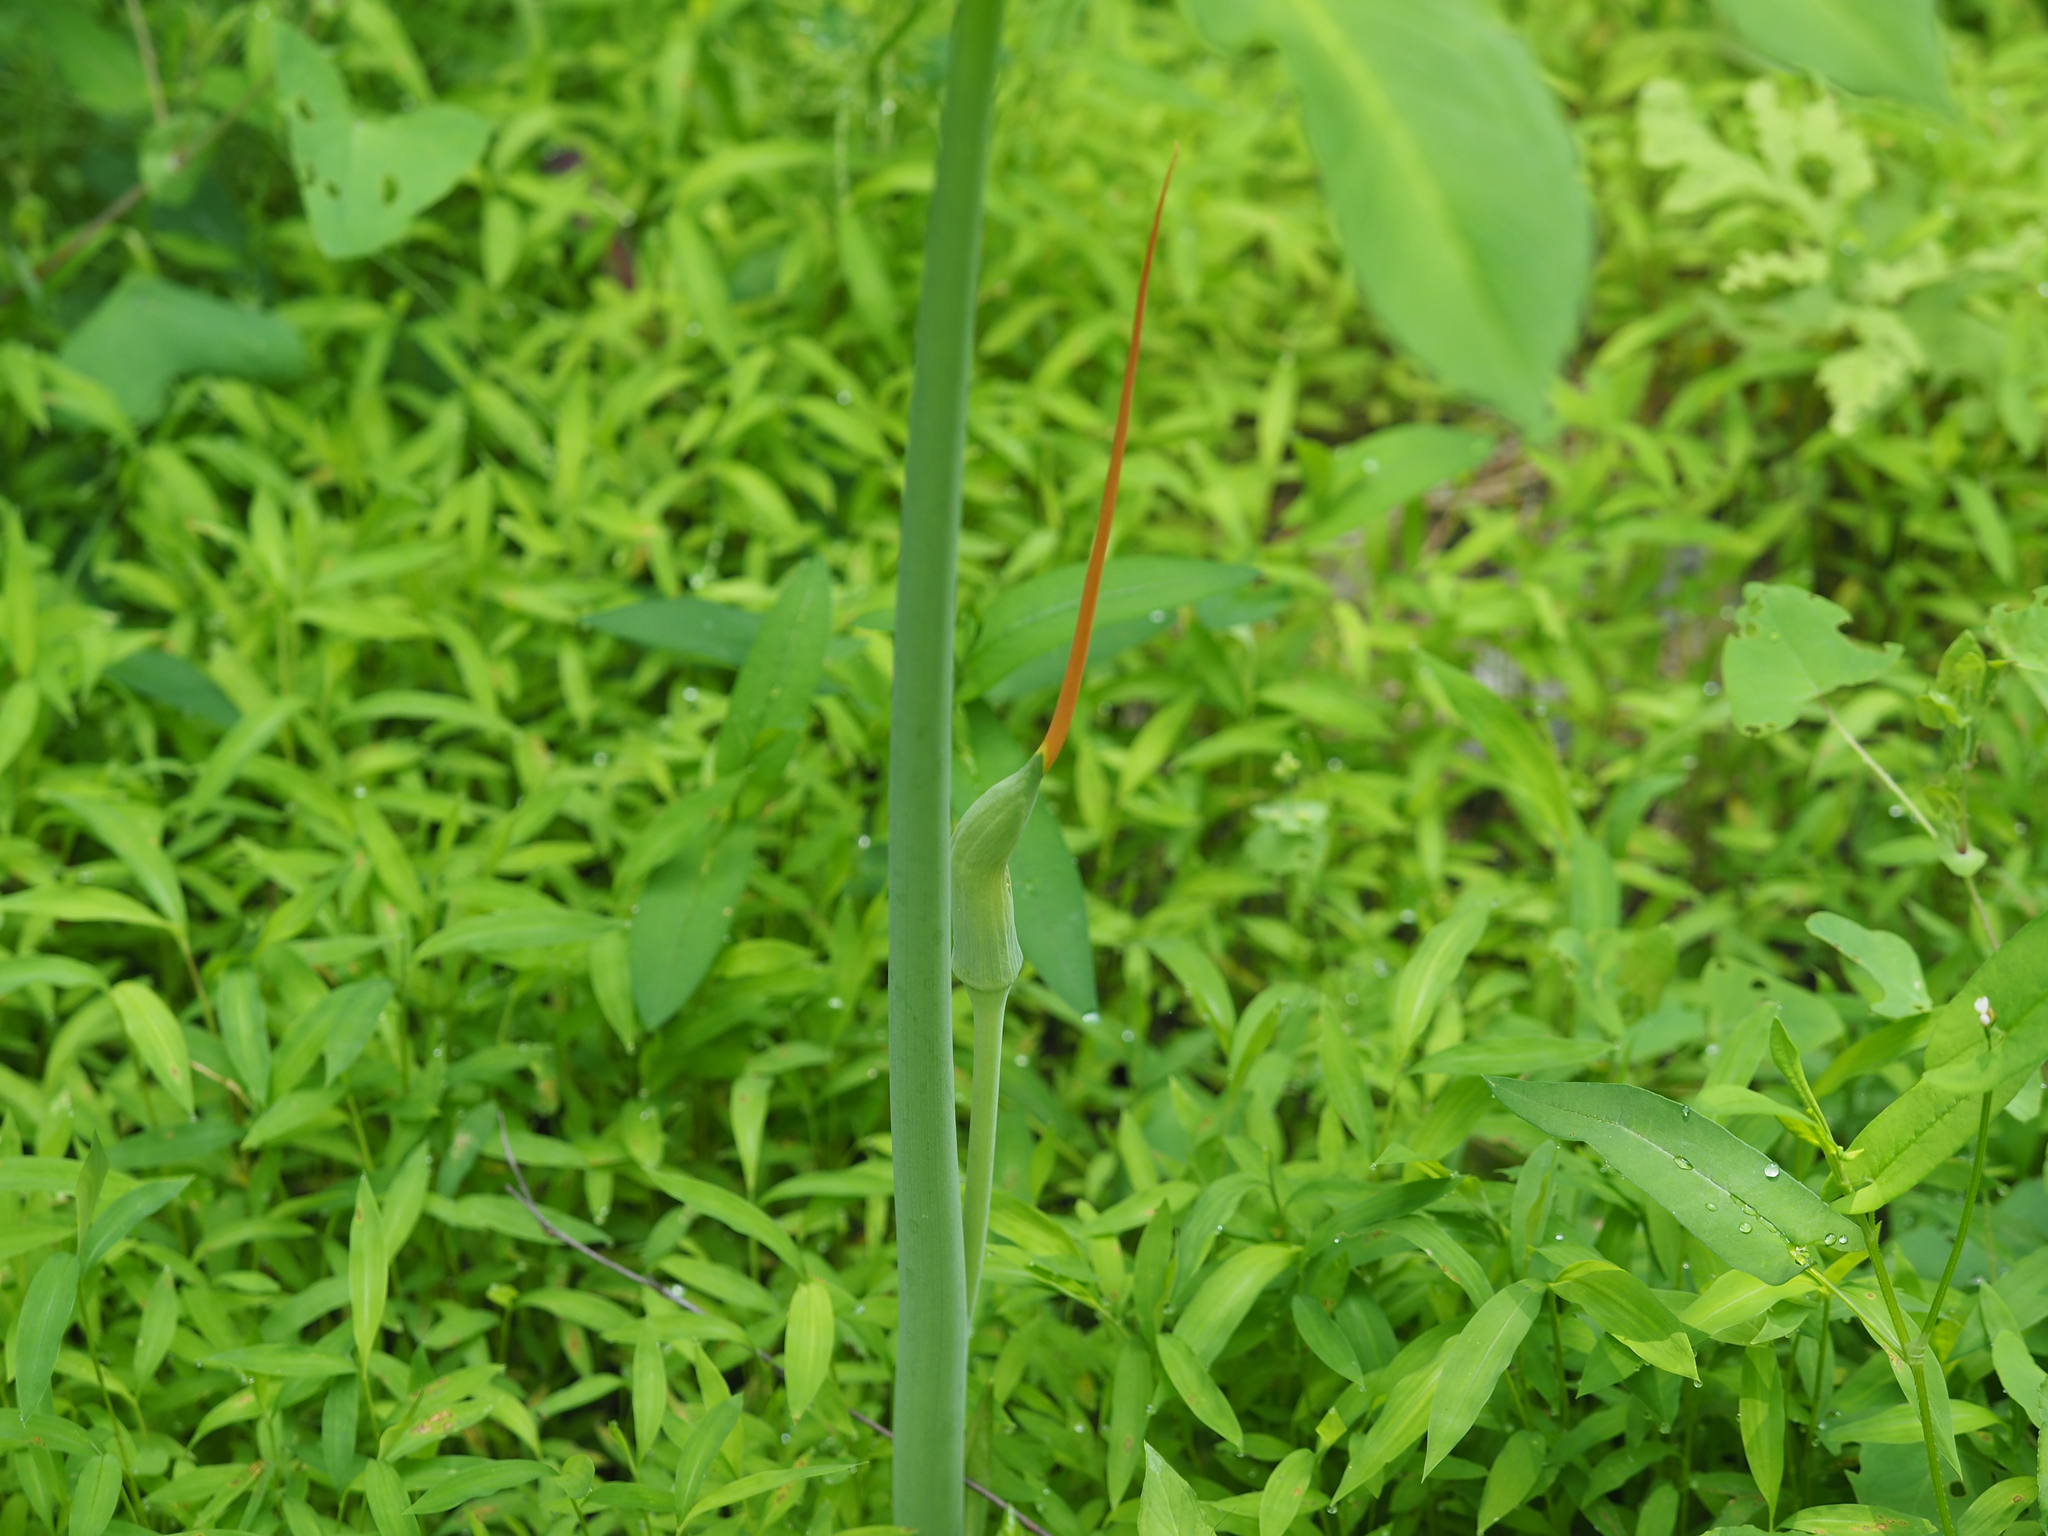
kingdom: Plantae
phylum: Tracheophyta
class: Liliopsida
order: Alismatales
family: Araceae
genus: Arisaema
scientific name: Arisaema dracontium
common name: Dragon-arum
